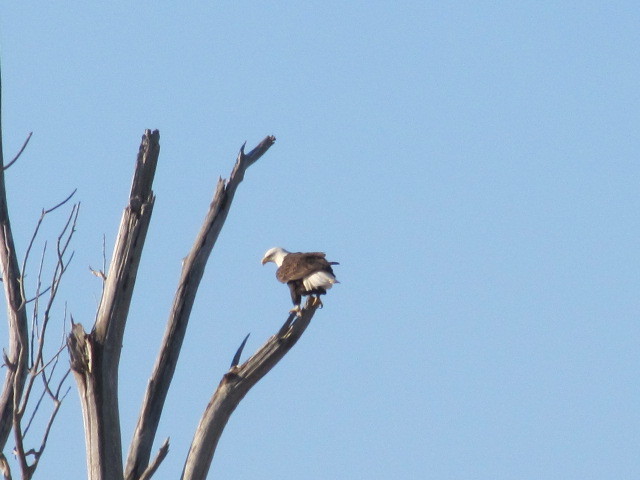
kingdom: Animalia
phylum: Chordata
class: Aves
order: Accipitriformes
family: Accipitridae
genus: Haliaeetus
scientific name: Haliaeetus leucocephalus
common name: Bald eagle
